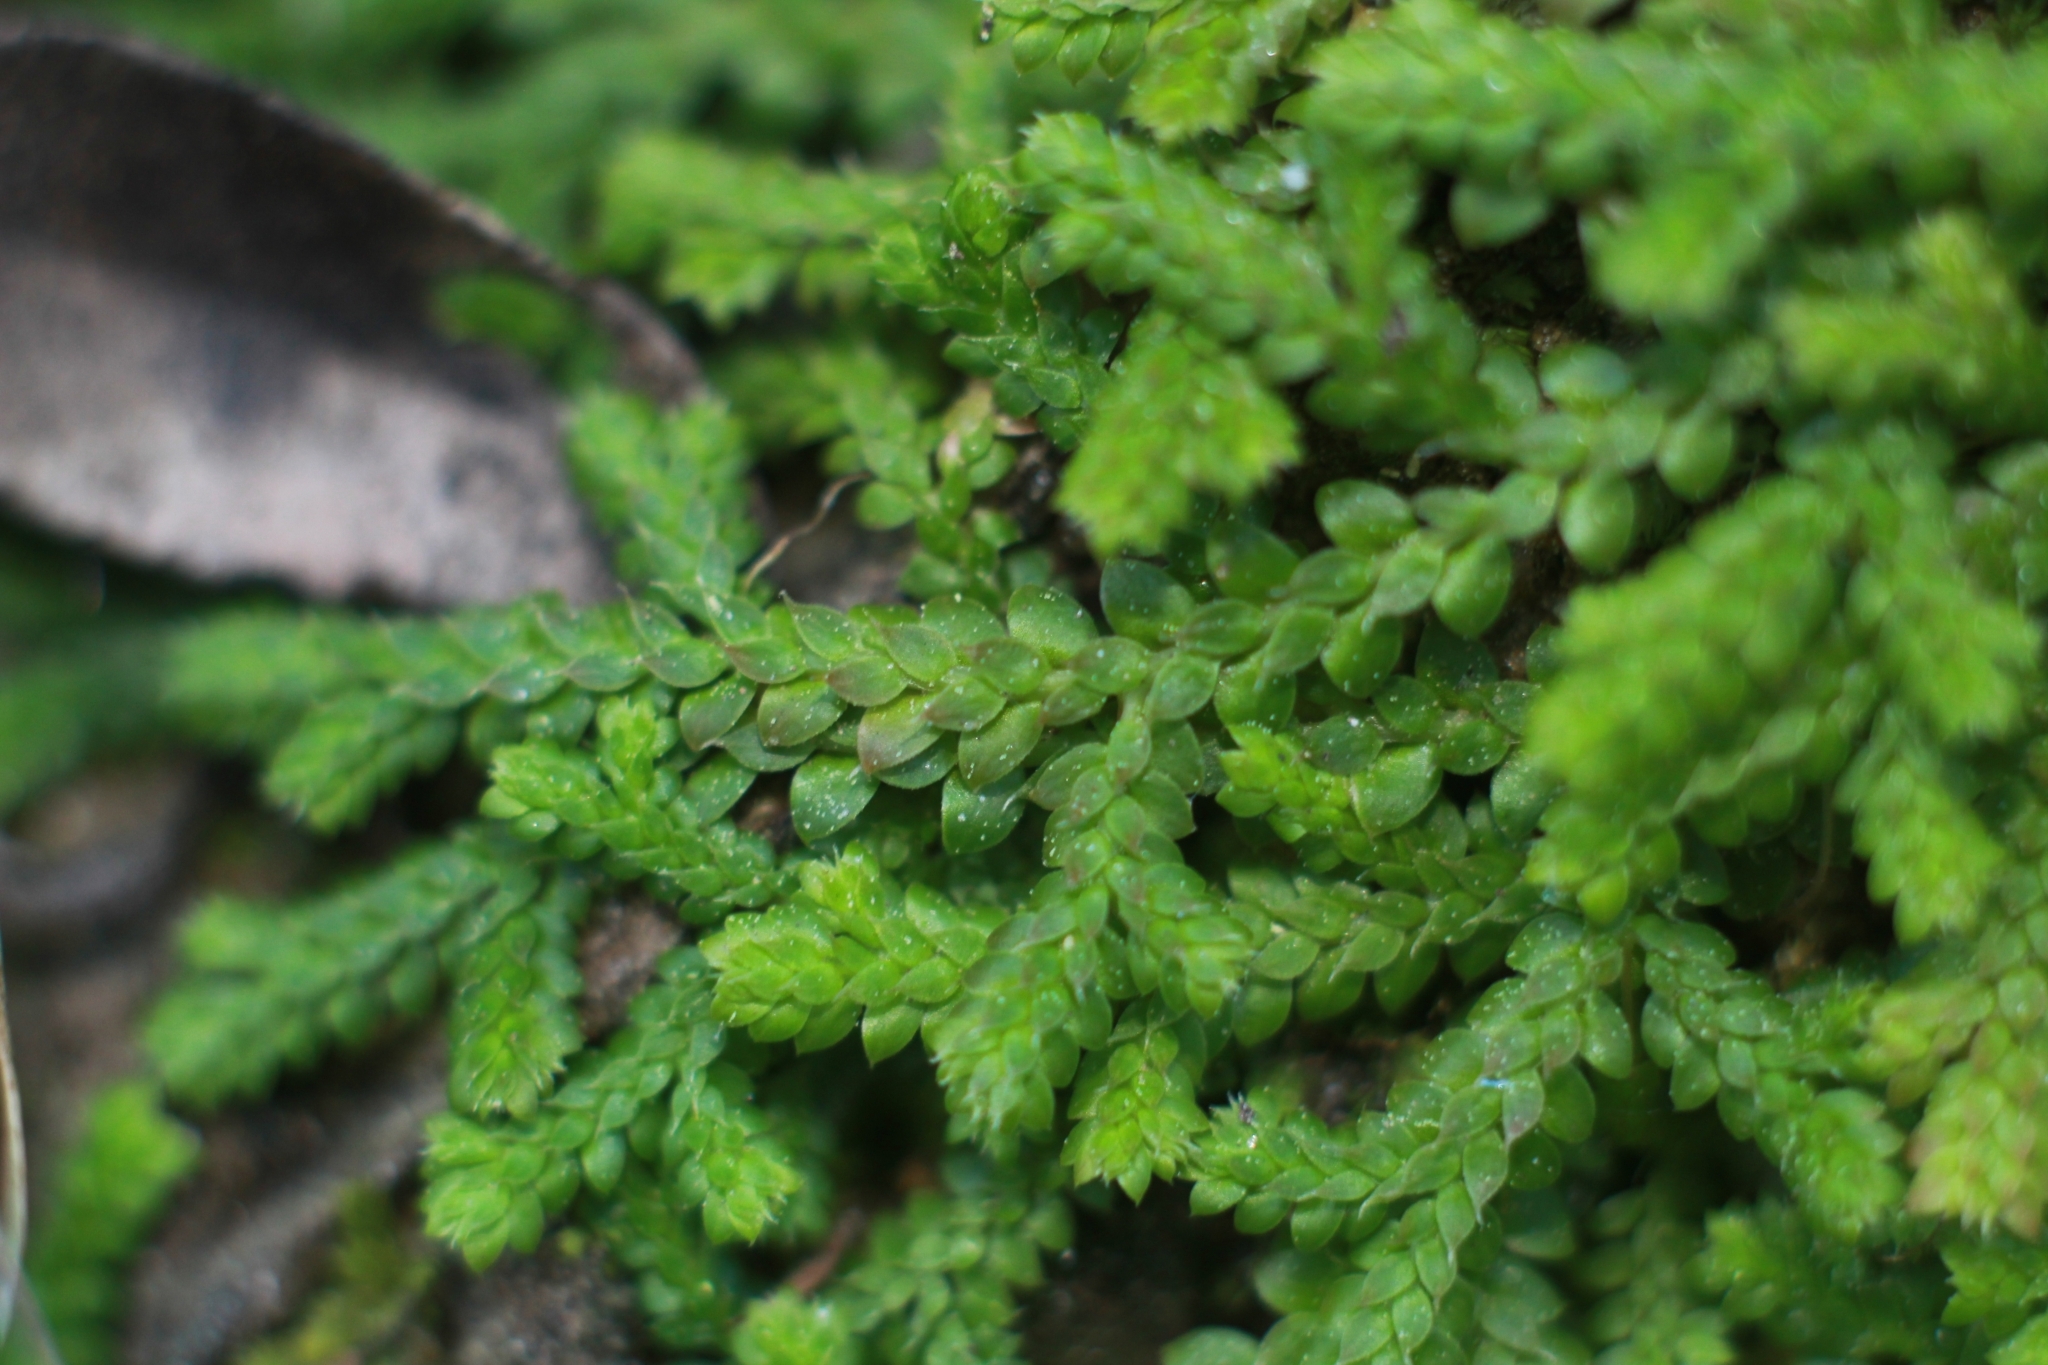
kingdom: Plantae
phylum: Tracheophyta
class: Lycopodiopsida
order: Selaginellales
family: Selaginellaceae
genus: Selaginella
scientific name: Selaginella denticulata
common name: Toothed-leaved clubmoss
